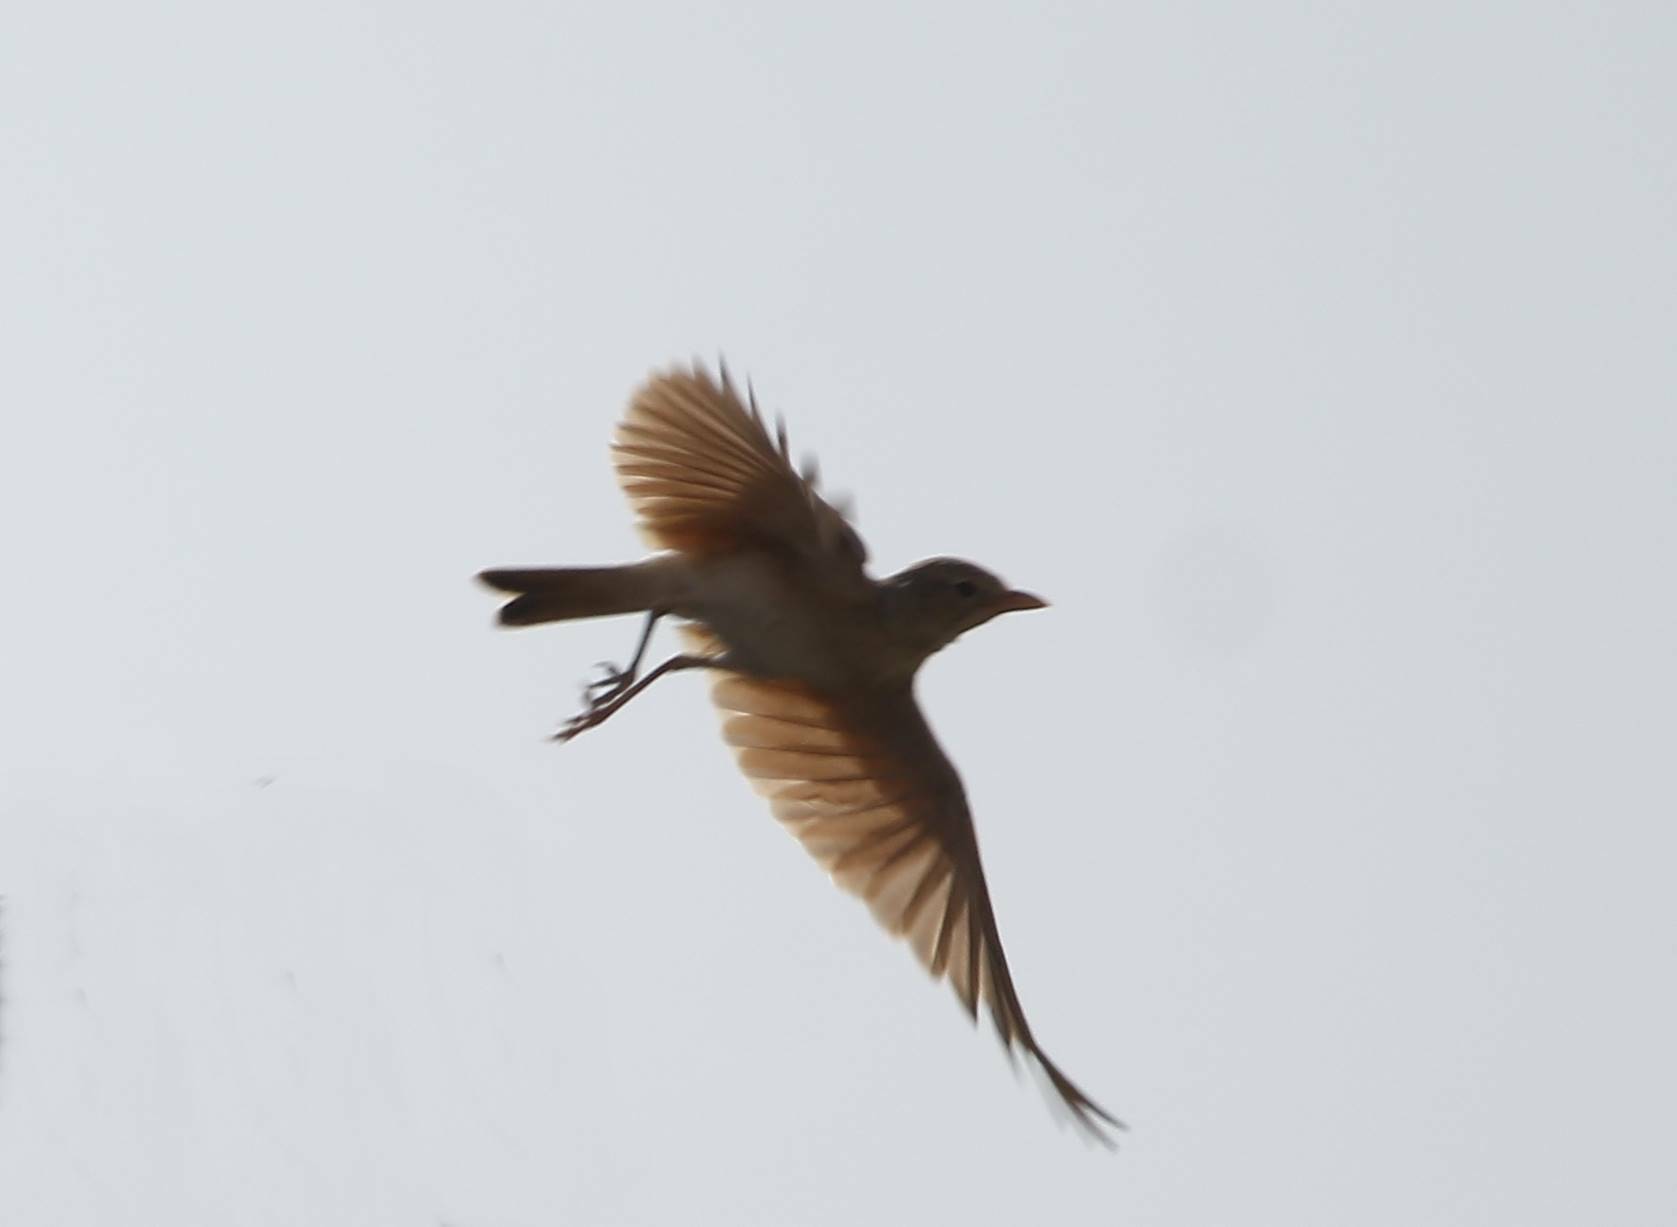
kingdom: Animalia
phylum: Chordata
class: Aves
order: Passeriformes
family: Alaudidae
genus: Ammomanes
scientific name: Ammomanes deserti
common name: Desert lark
